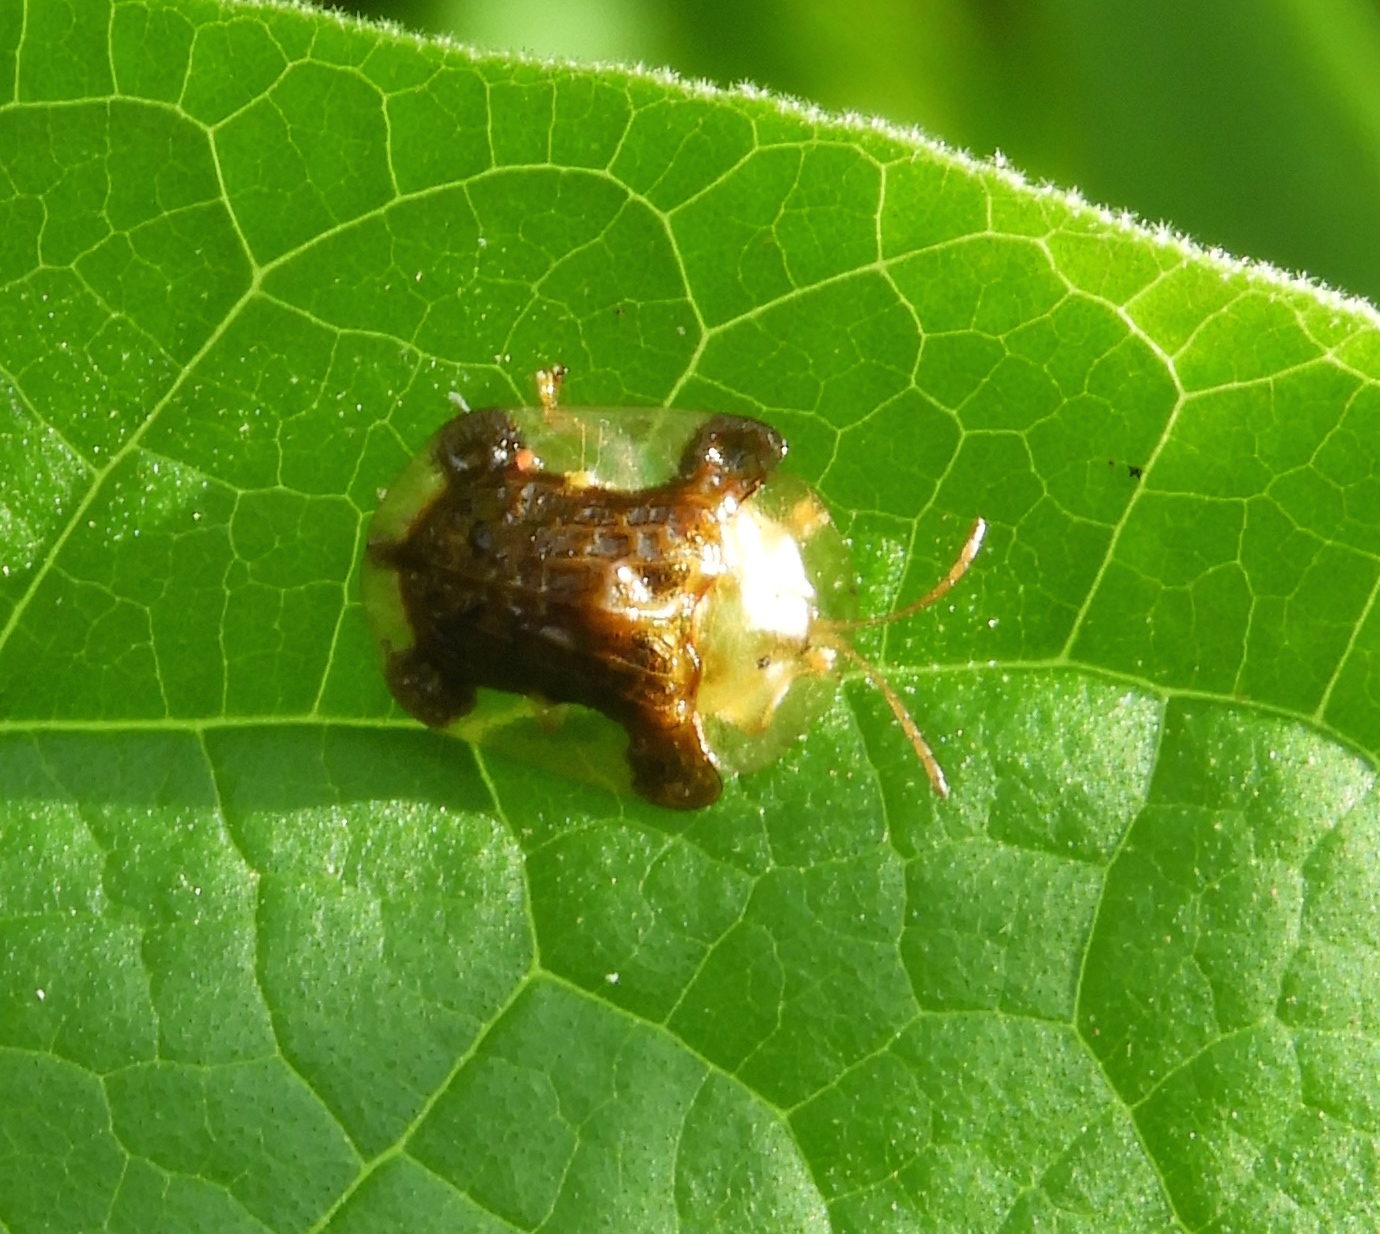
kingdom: Animalia
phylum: Arthropoda
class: Insecta
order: Coleoptera
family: Chrysomelidae
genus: Helocassis
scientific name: Helocassis testudinaria
